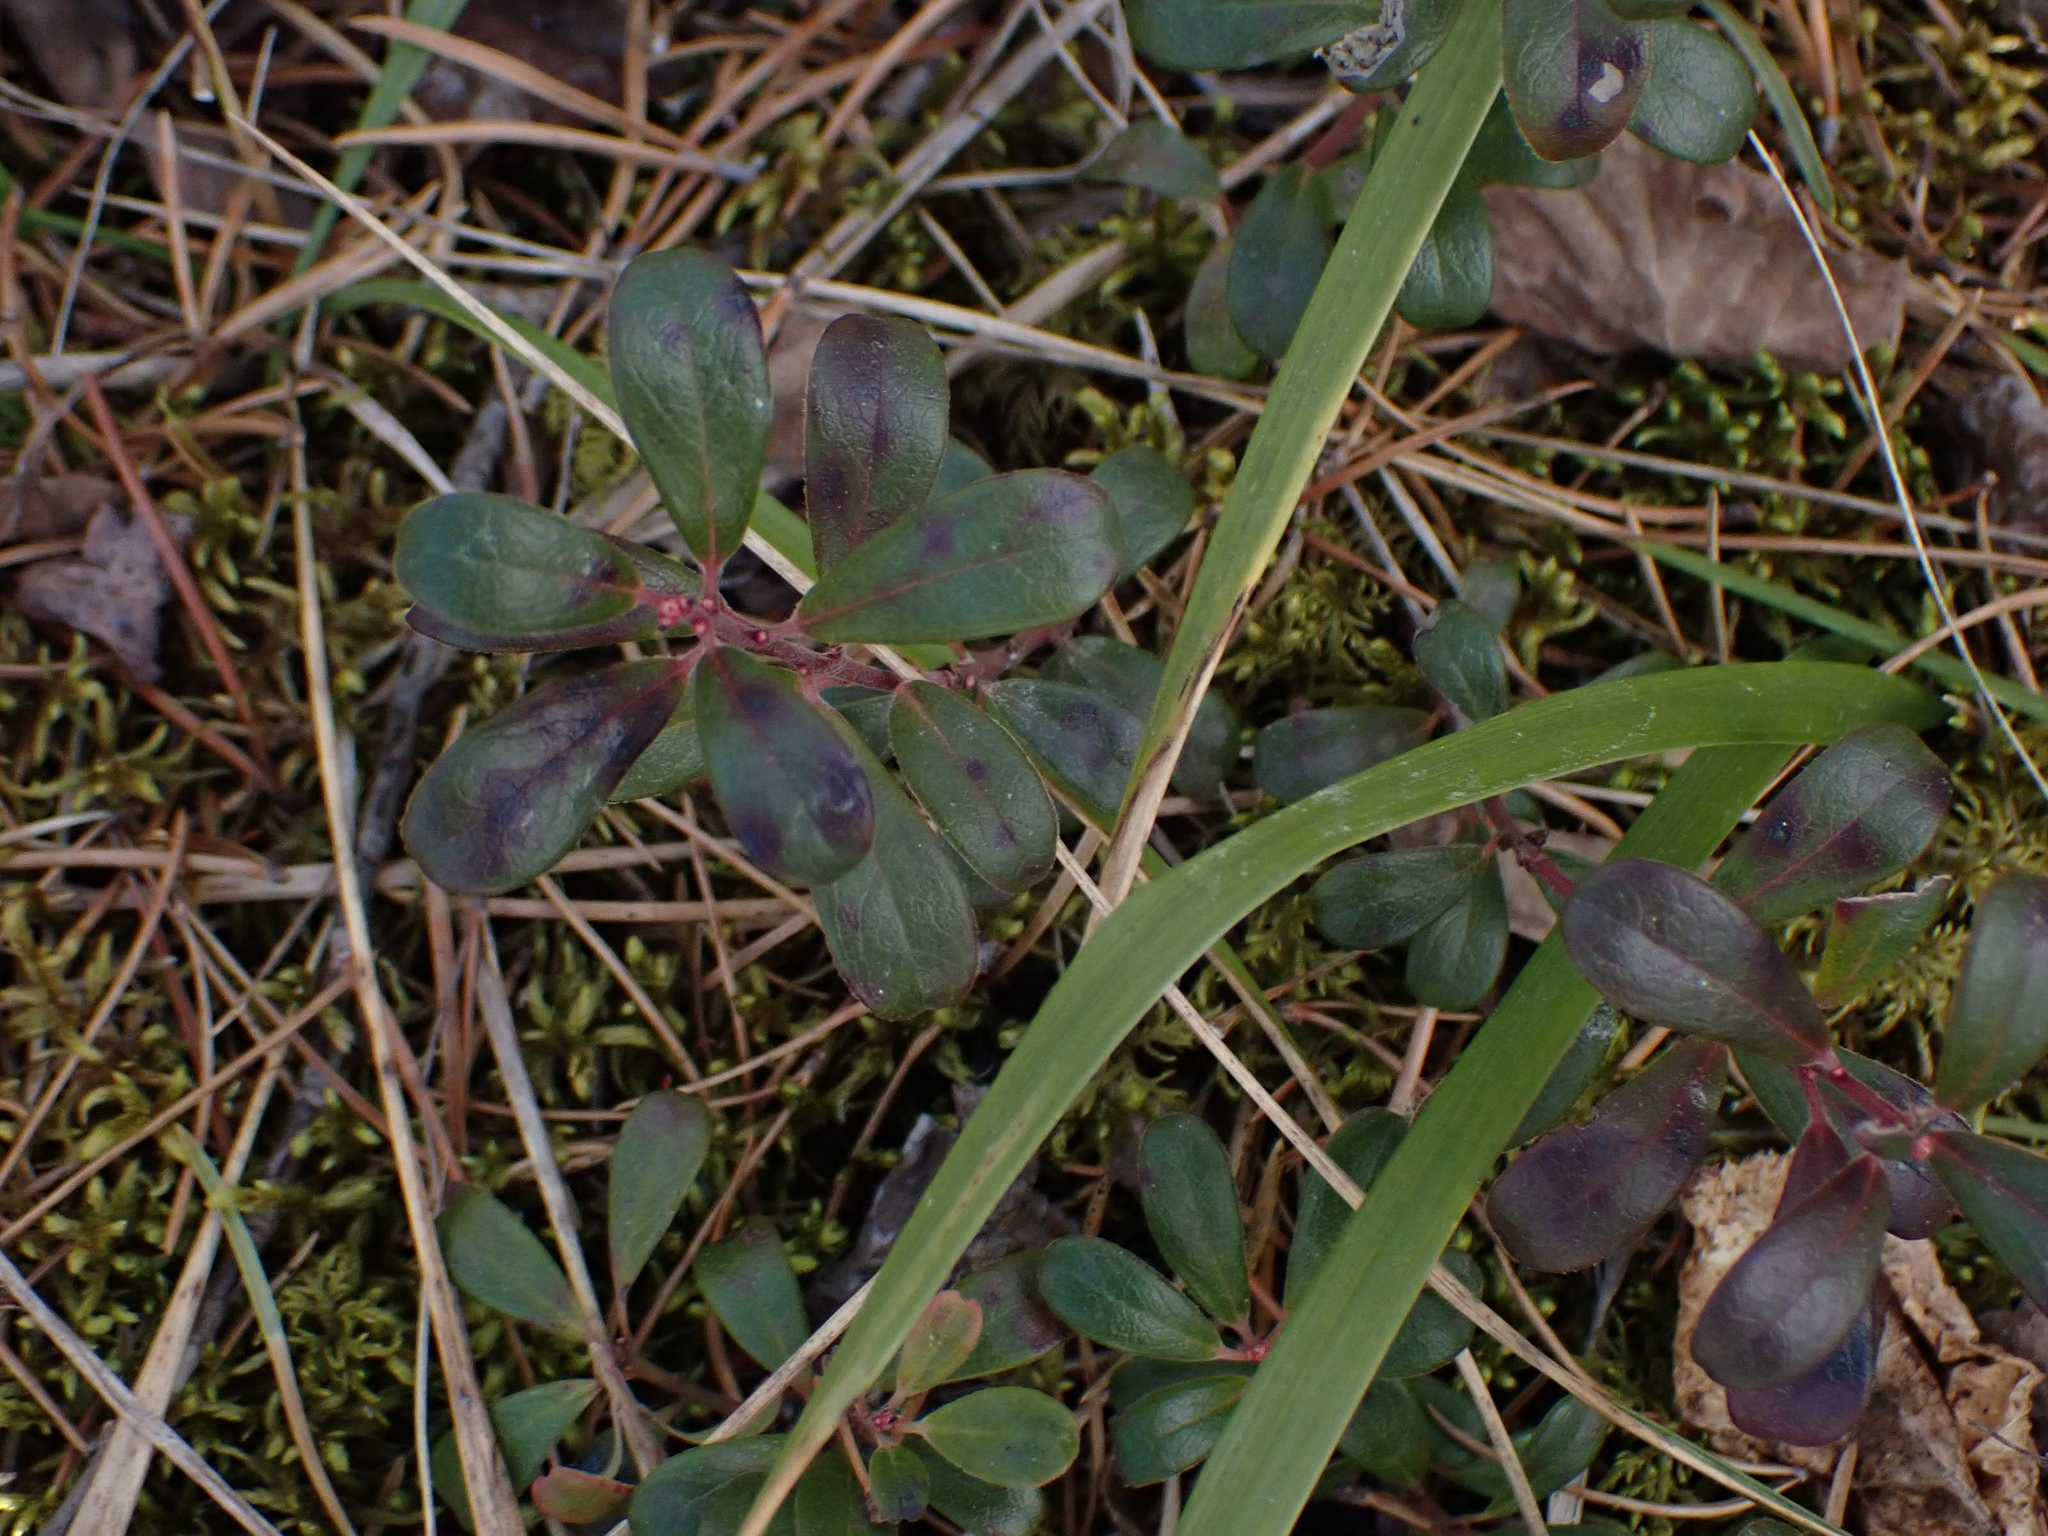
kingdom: Plantae
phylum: Tracheophyta
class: Magnoliopsida
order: Ericales
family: Ericaceae
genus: Arctostaphylos
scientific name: Arctostaphylos uva-ursi
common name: Bearberry
